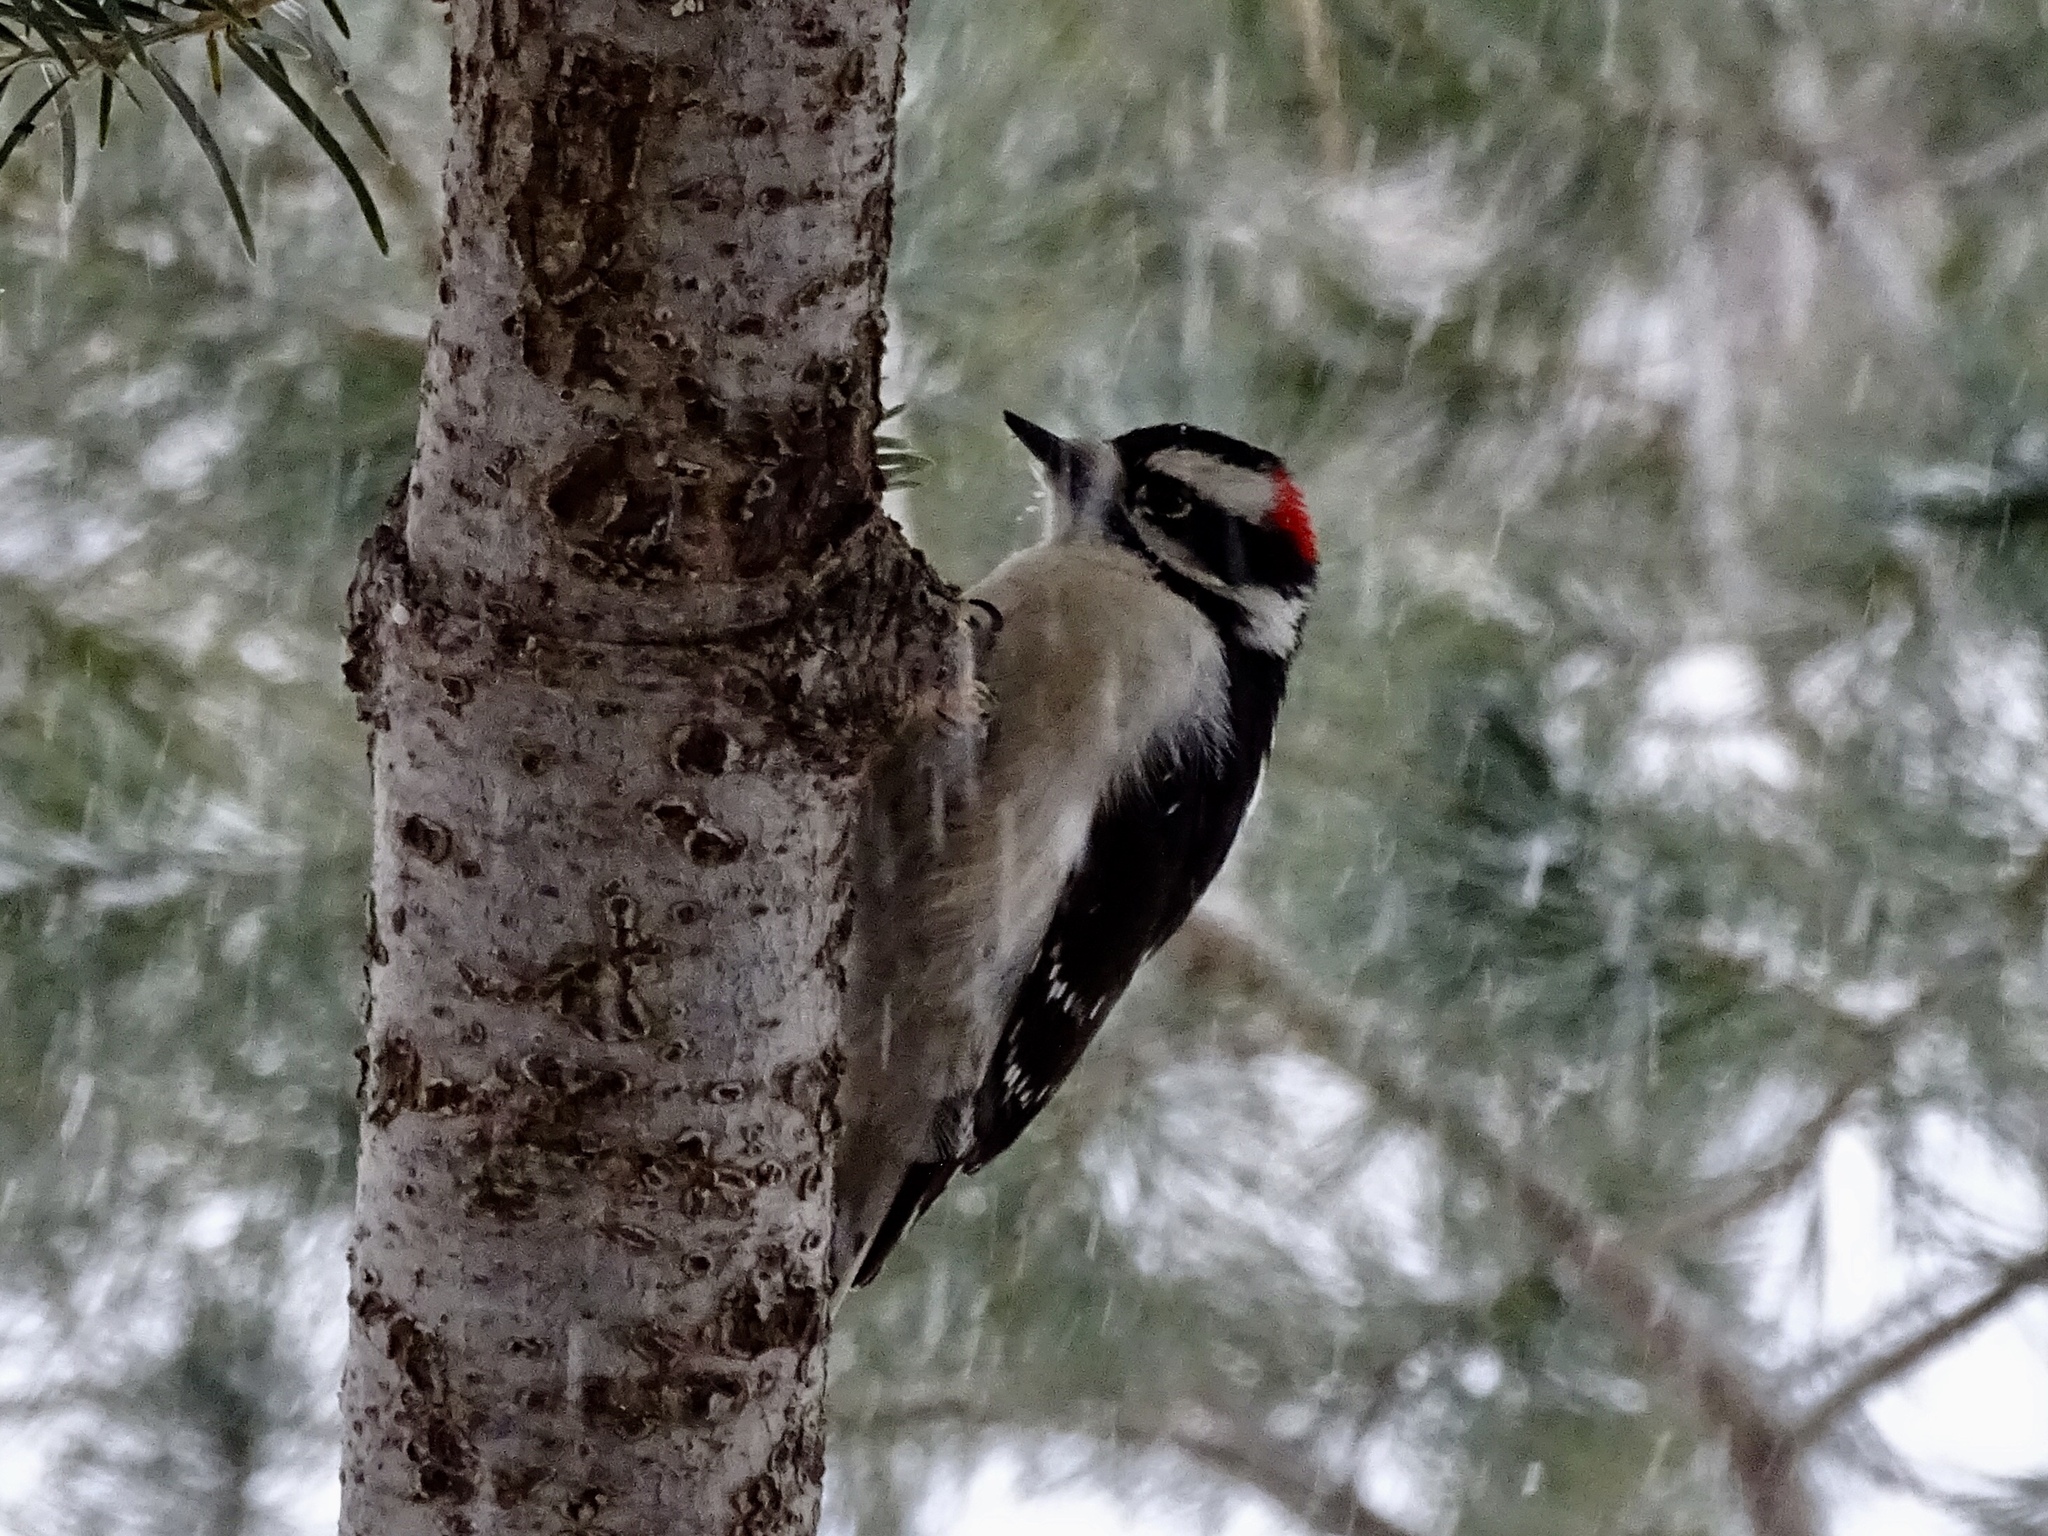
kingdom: Animalia
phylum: Chordata
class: Aves
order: Piciformes
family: Picidae
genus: Dryobates
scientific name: Dryobates pubescens
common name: Downy woodpecker
